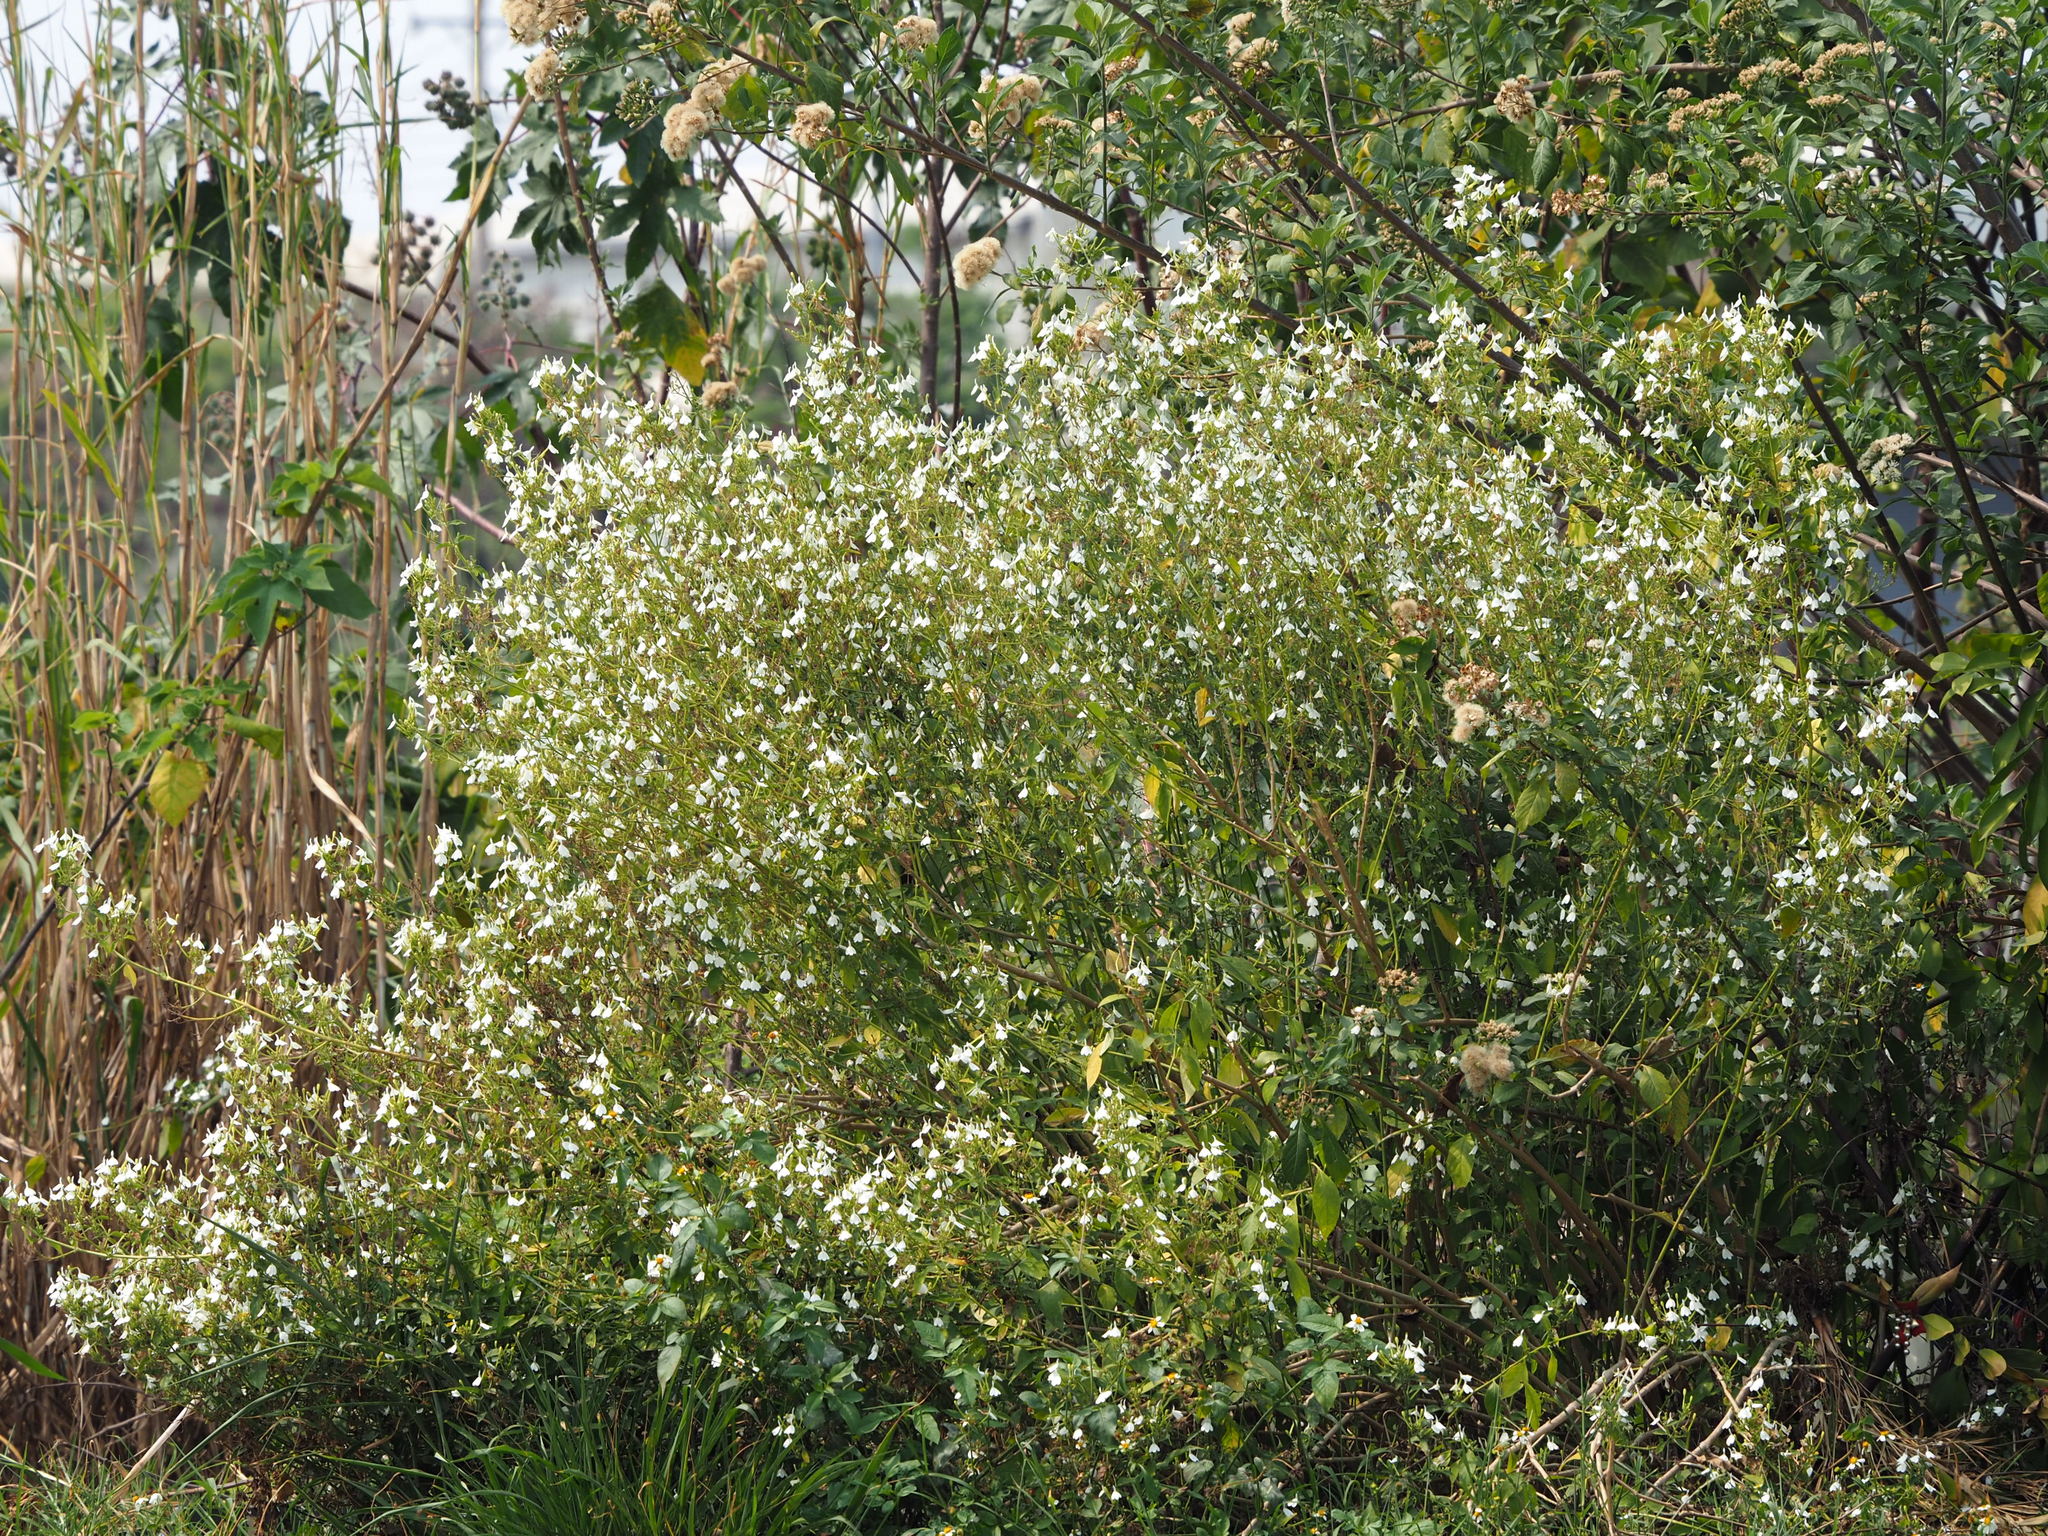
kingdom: Plantae
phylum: Tracheophyta
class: Magnoliopsida
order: Lamiales
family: Acanthaceae
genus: Rhinacanthus
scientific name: Rhinacanthus nasutus
